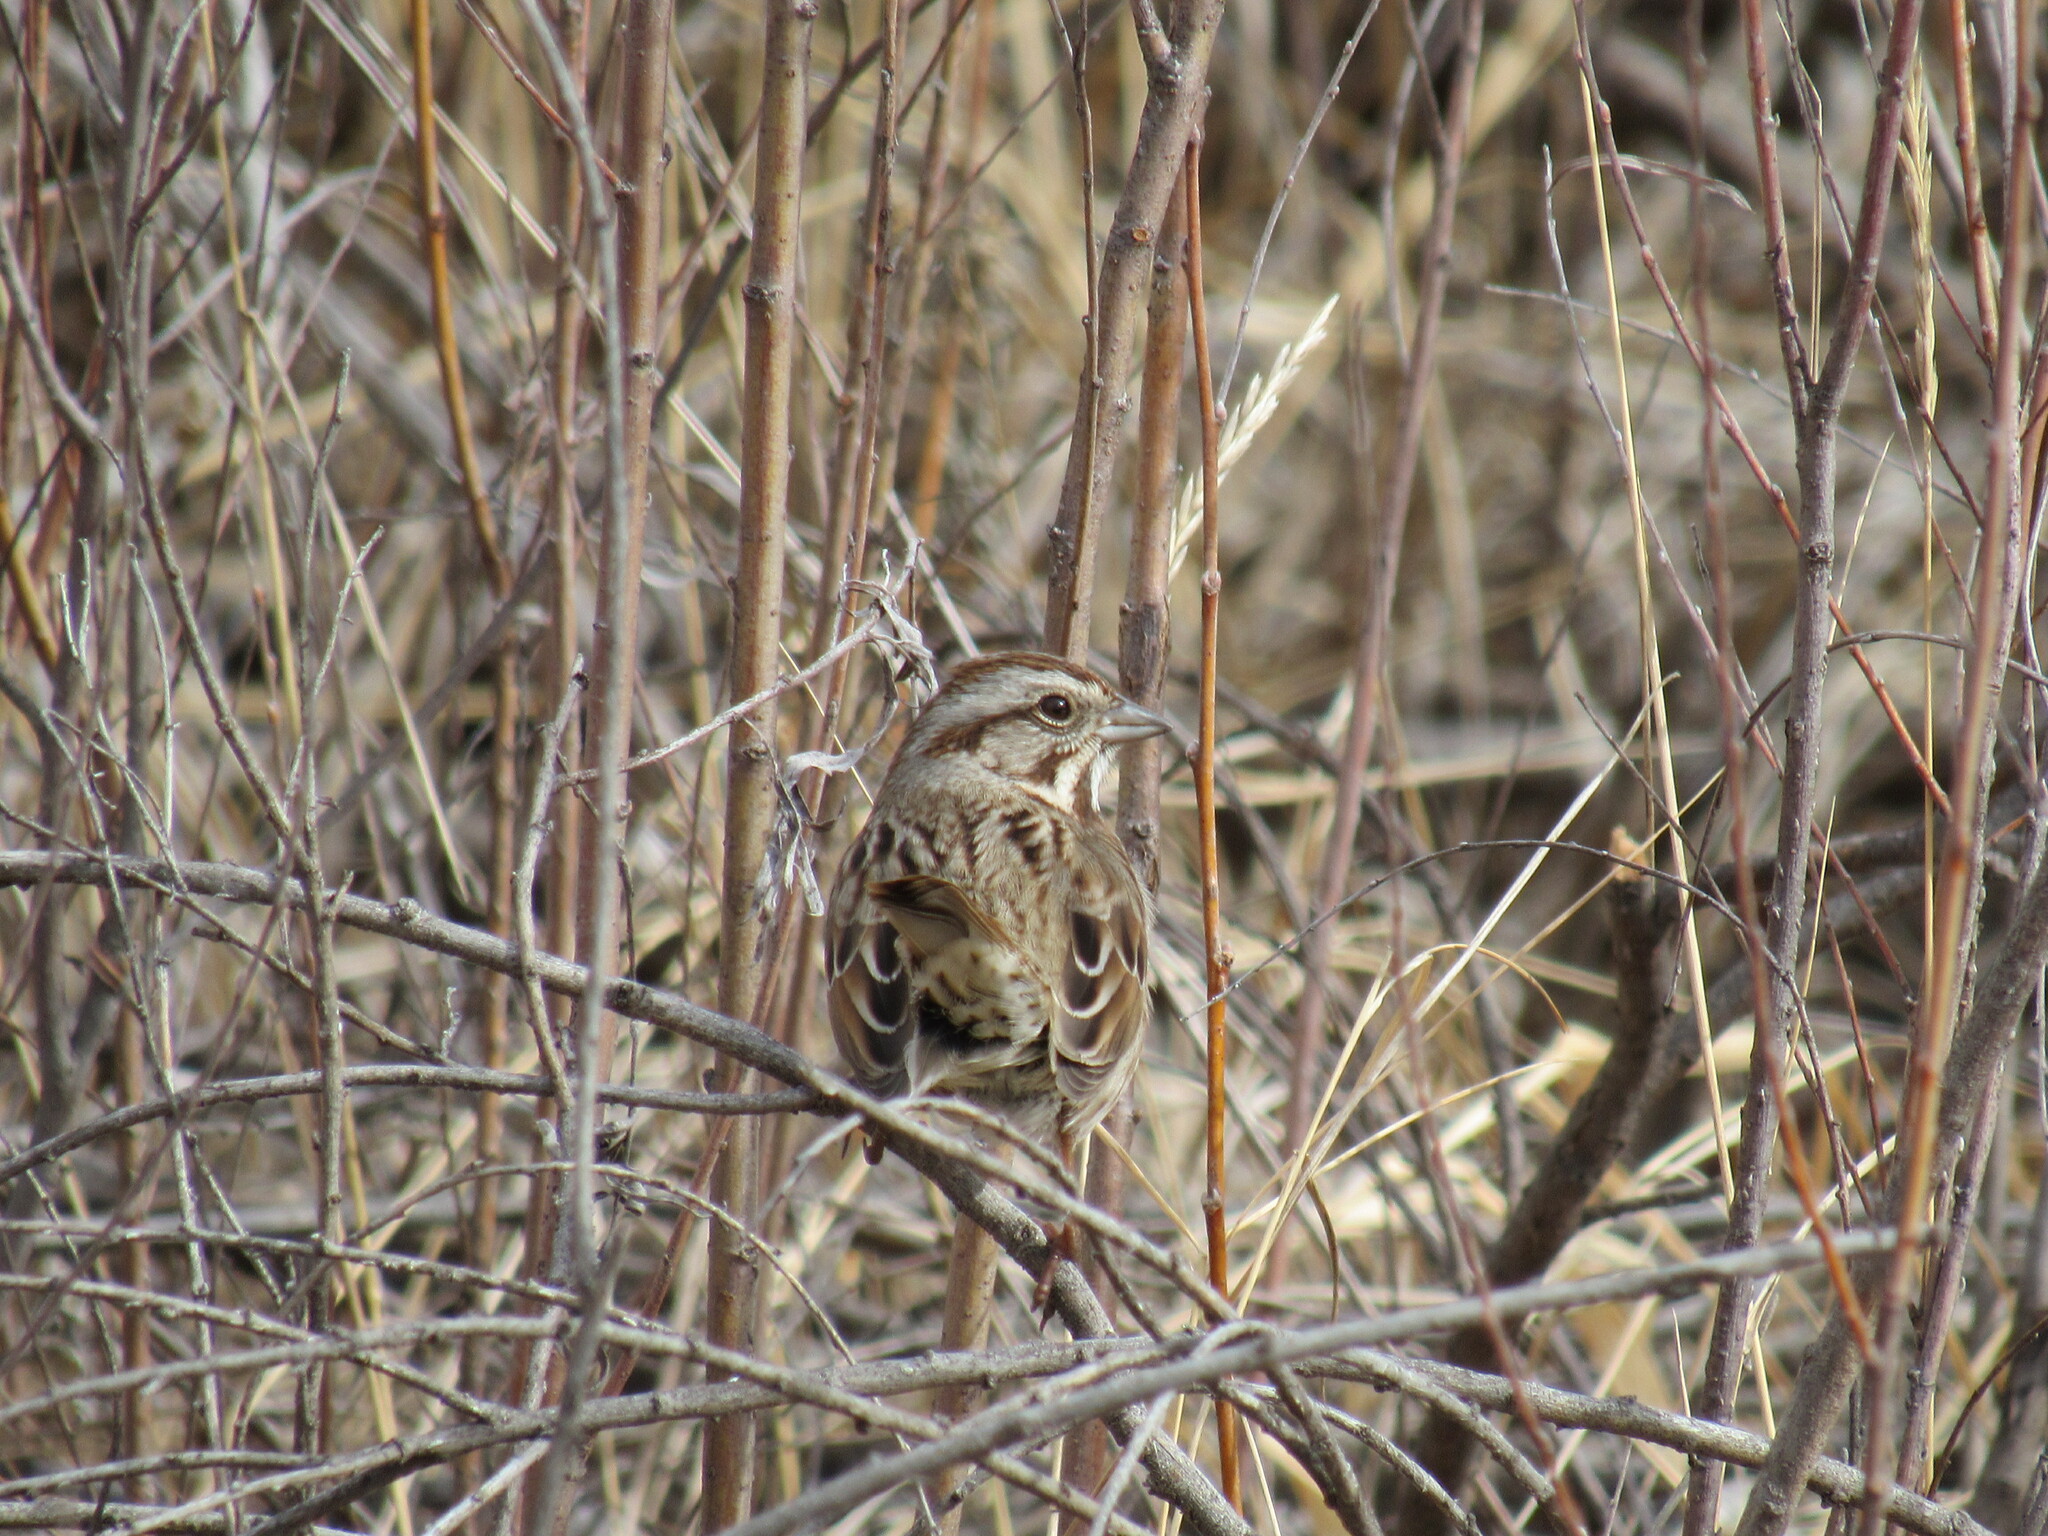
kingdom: Animalia
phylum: Chordata
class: Aves
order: Passeriformes
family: Passerellidae
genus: Melospiza
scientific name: Melospiza melodia
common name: Song sparrow
